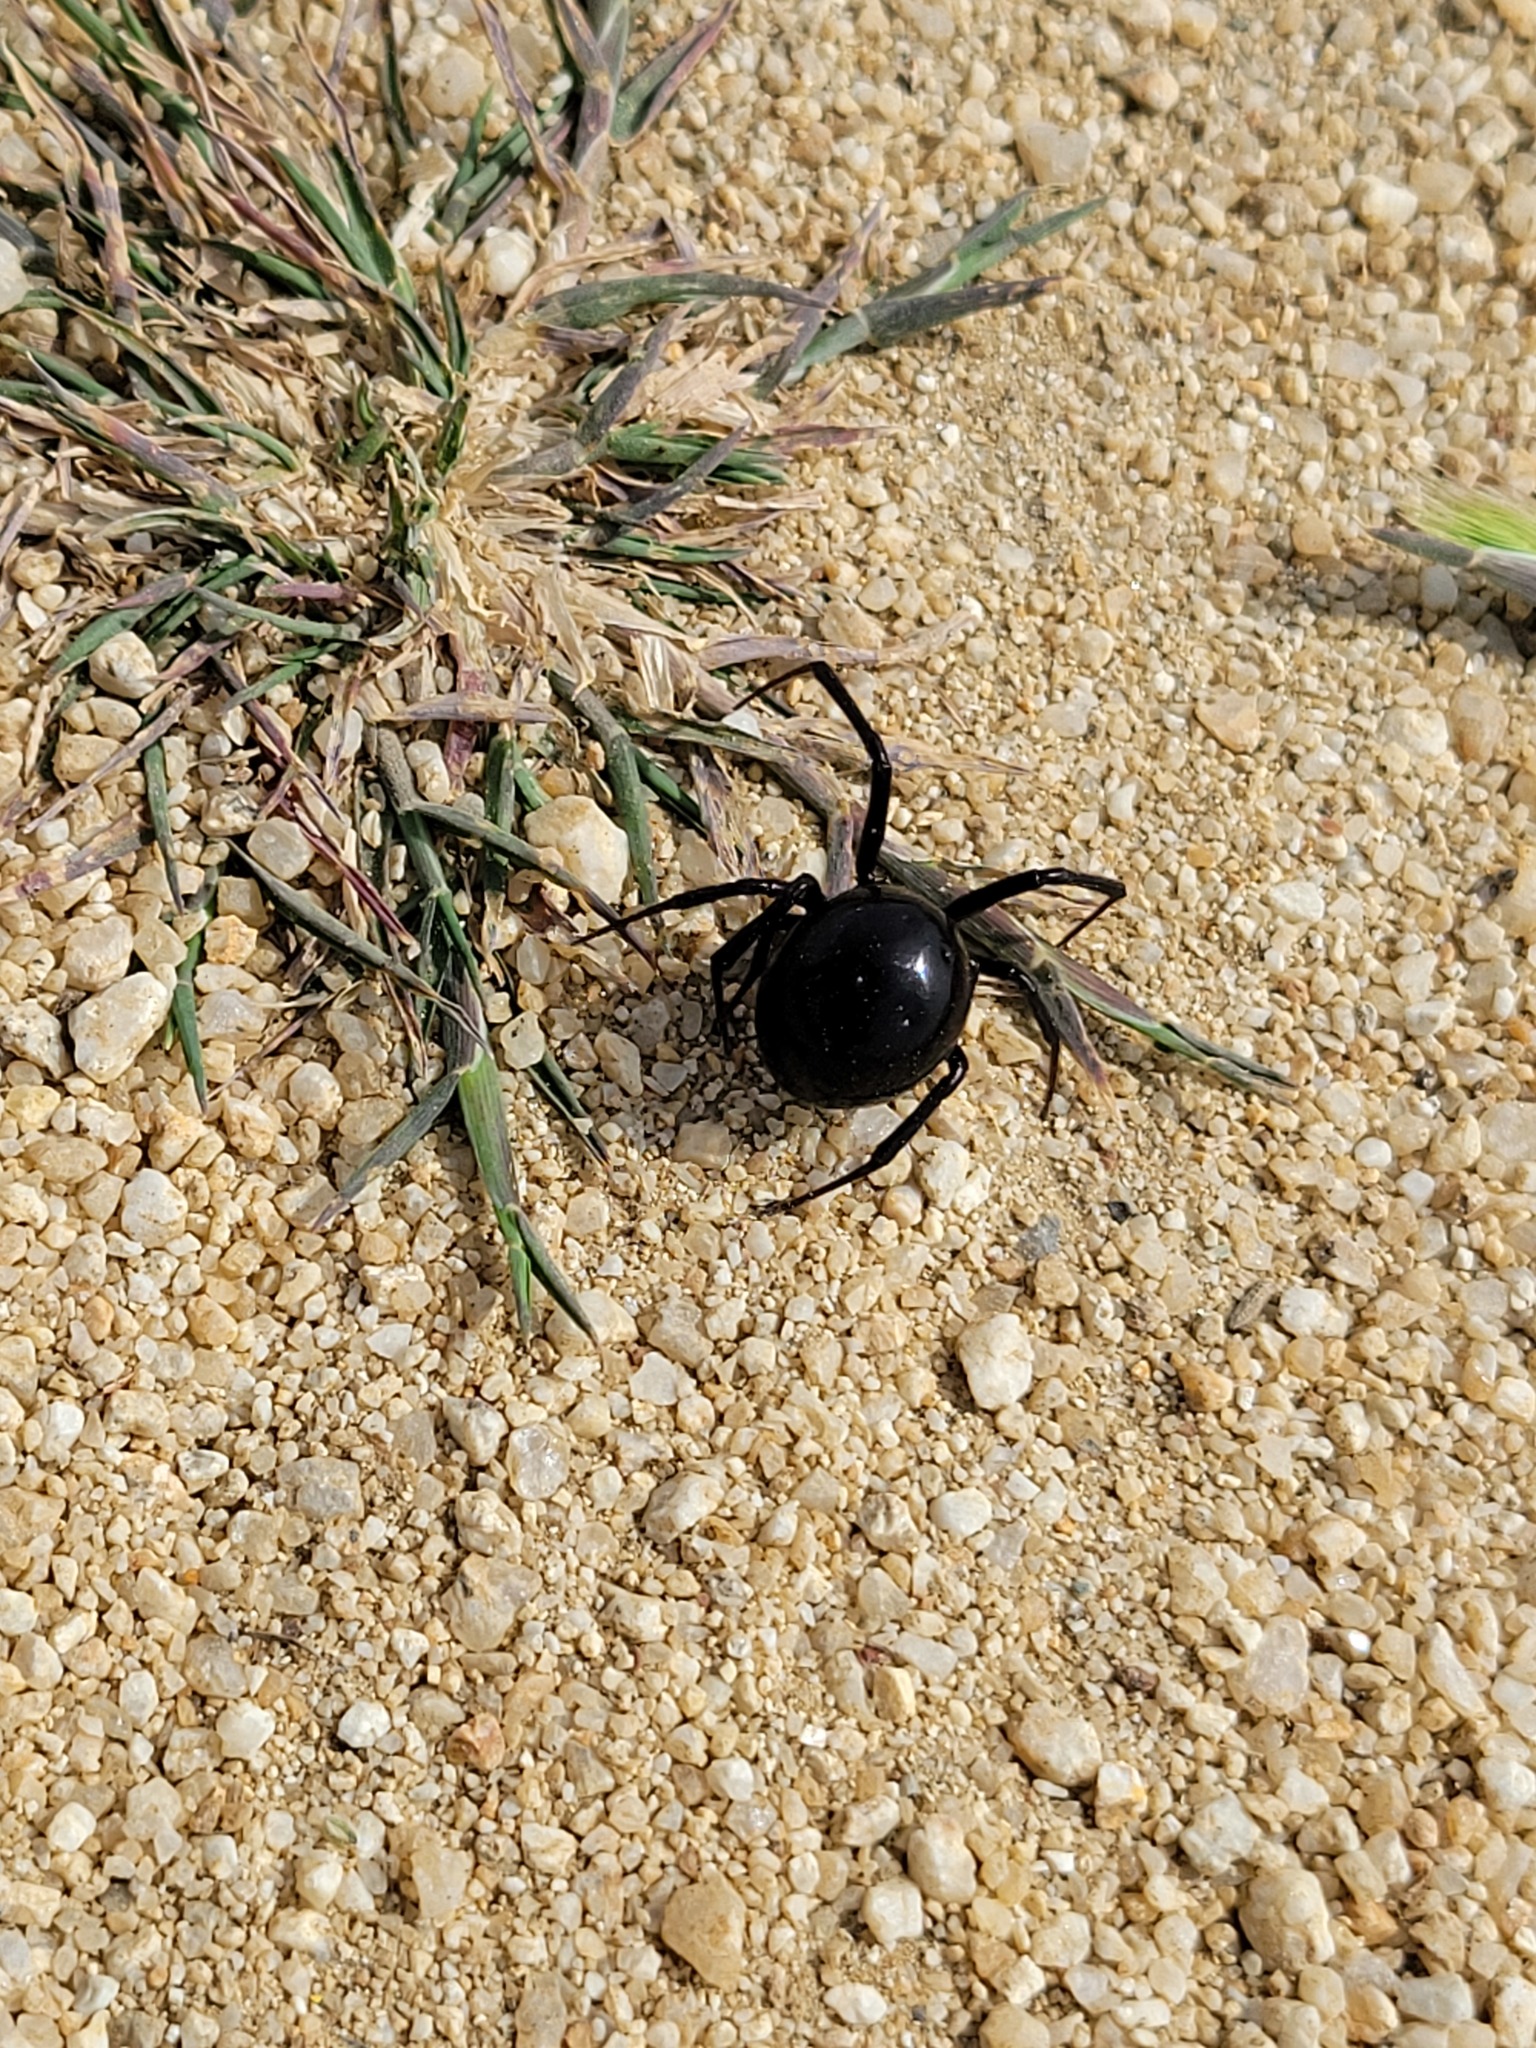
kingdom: Animalia
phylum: Arthropoda
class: Arachnida
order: Araneae
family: Theridiidae
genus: Latrodectus
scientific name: Latrodectus hesperus
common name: Western black widow
